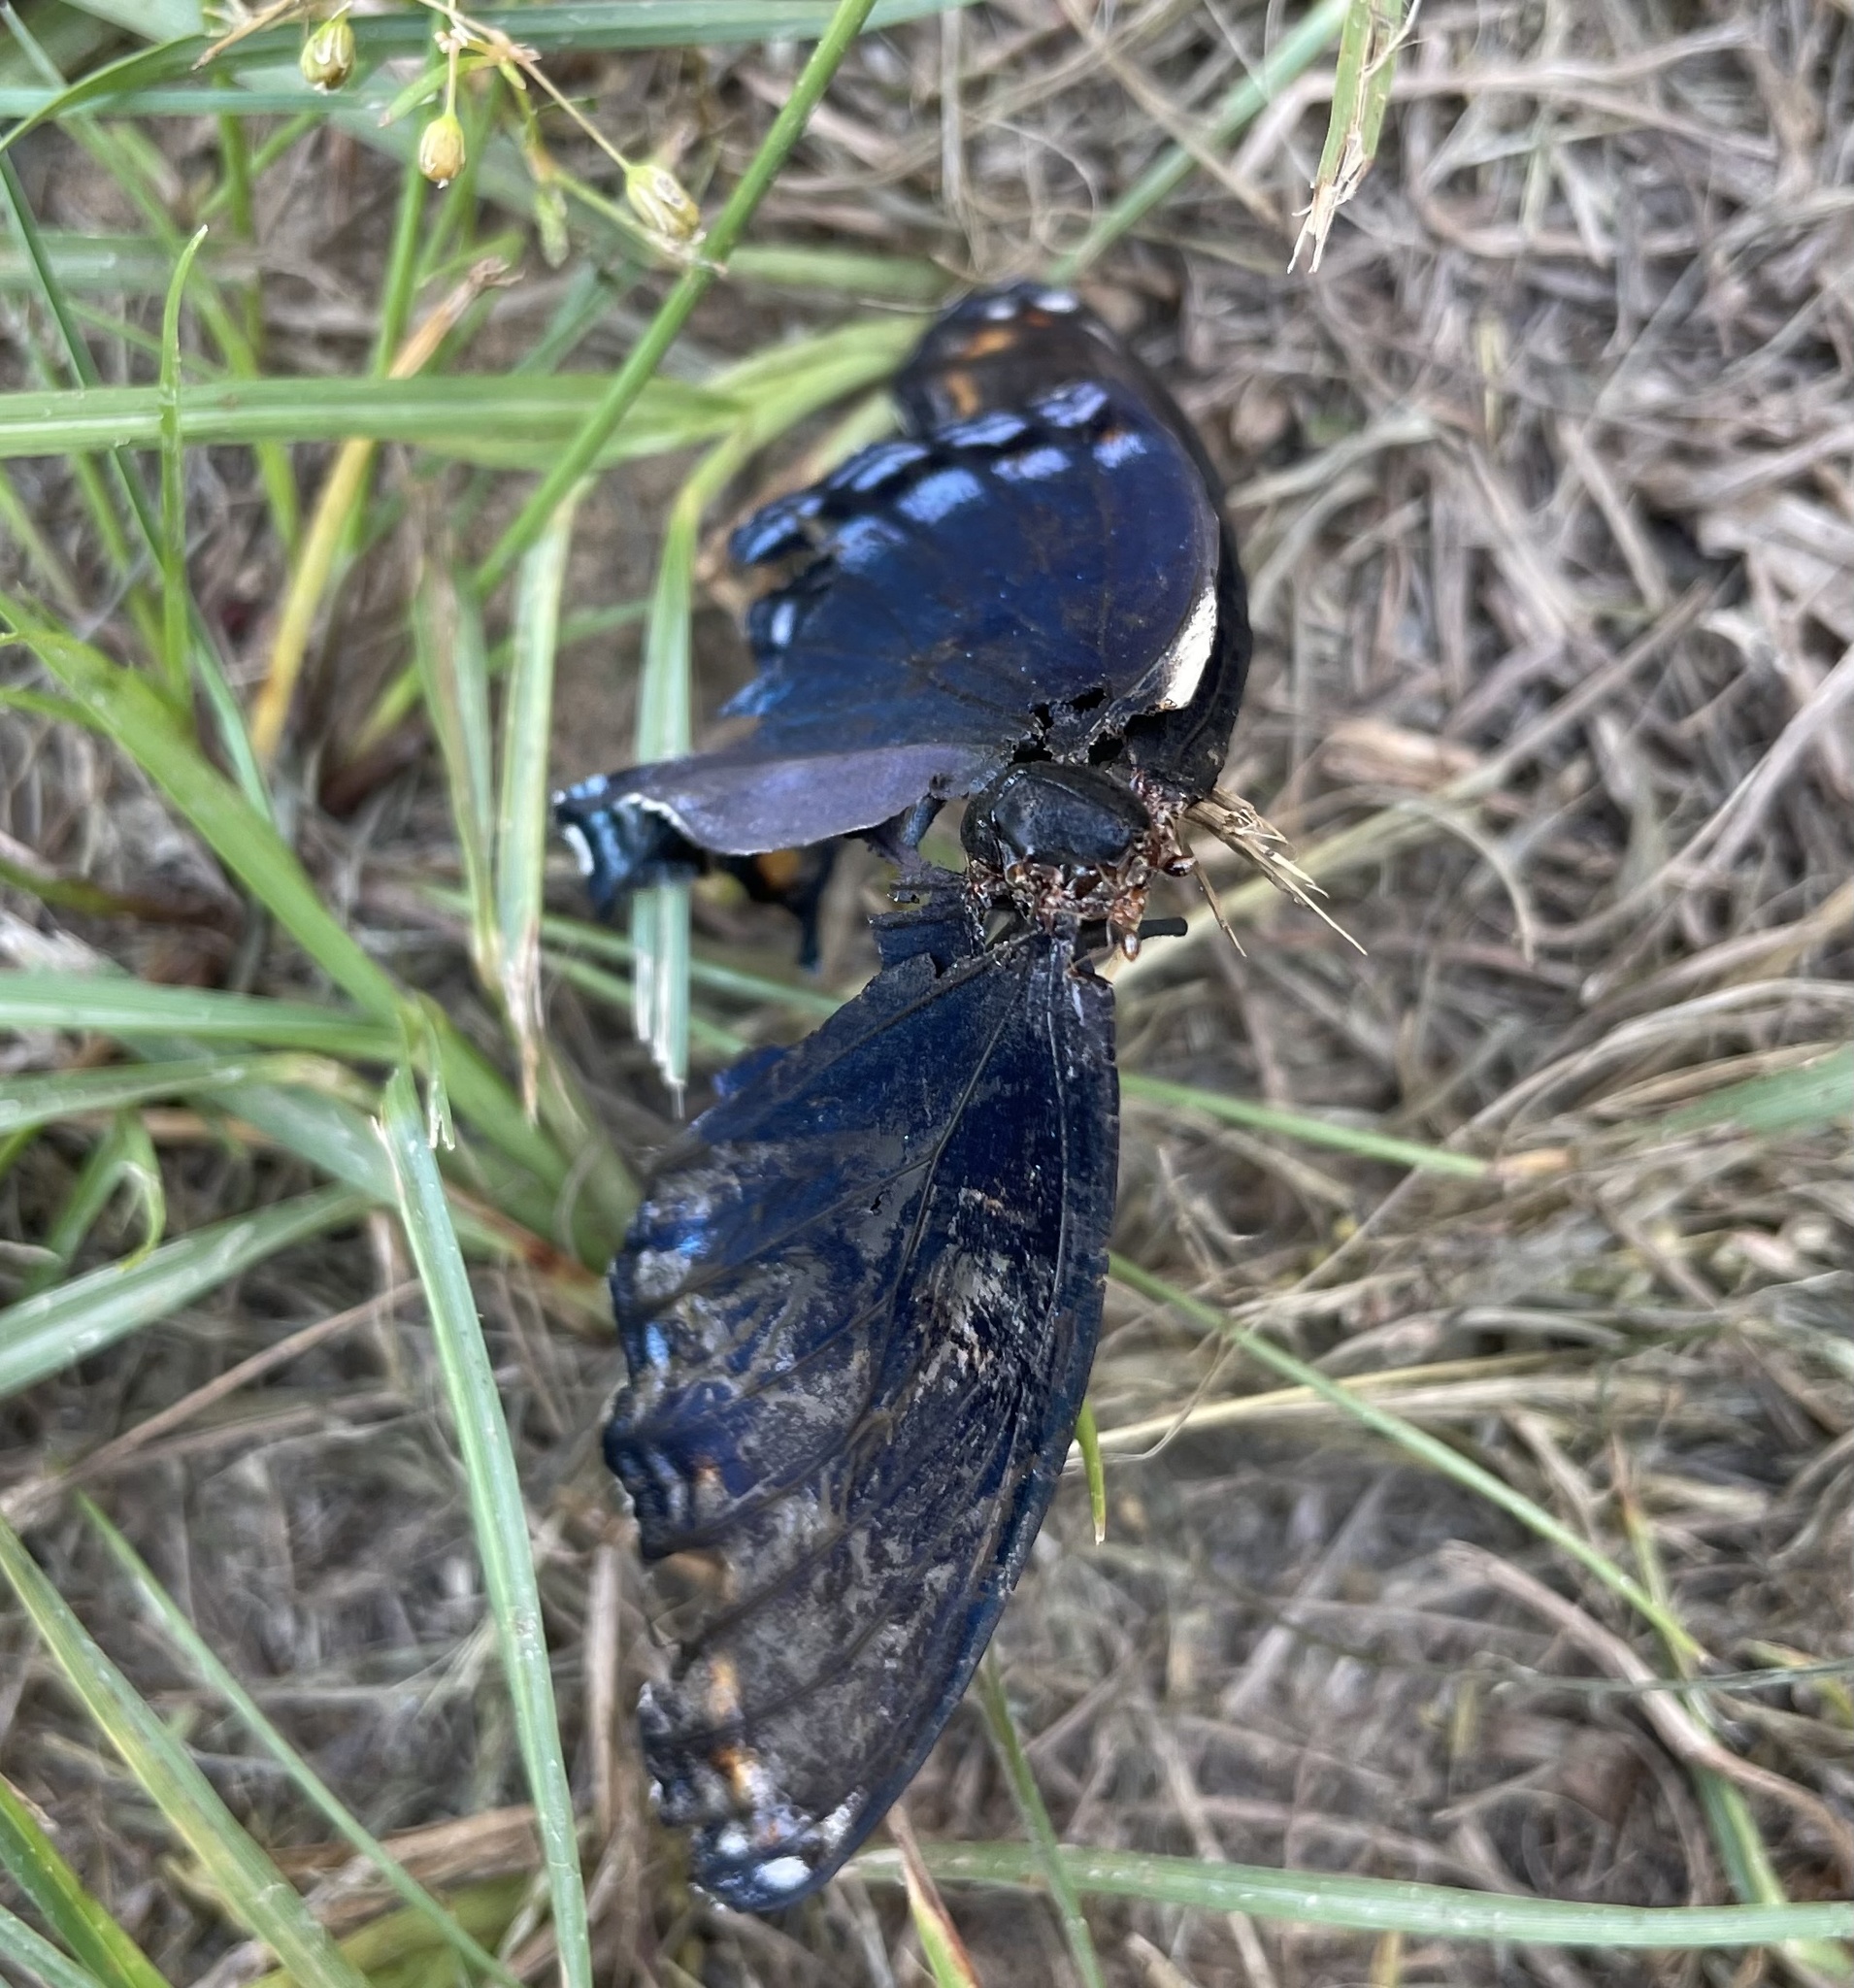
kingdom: Animalia
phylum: Arthropoda
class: Insecta
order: Lepidoptera
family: Nymphalidae
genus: Limenitis
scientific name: Limenitis astyanax
